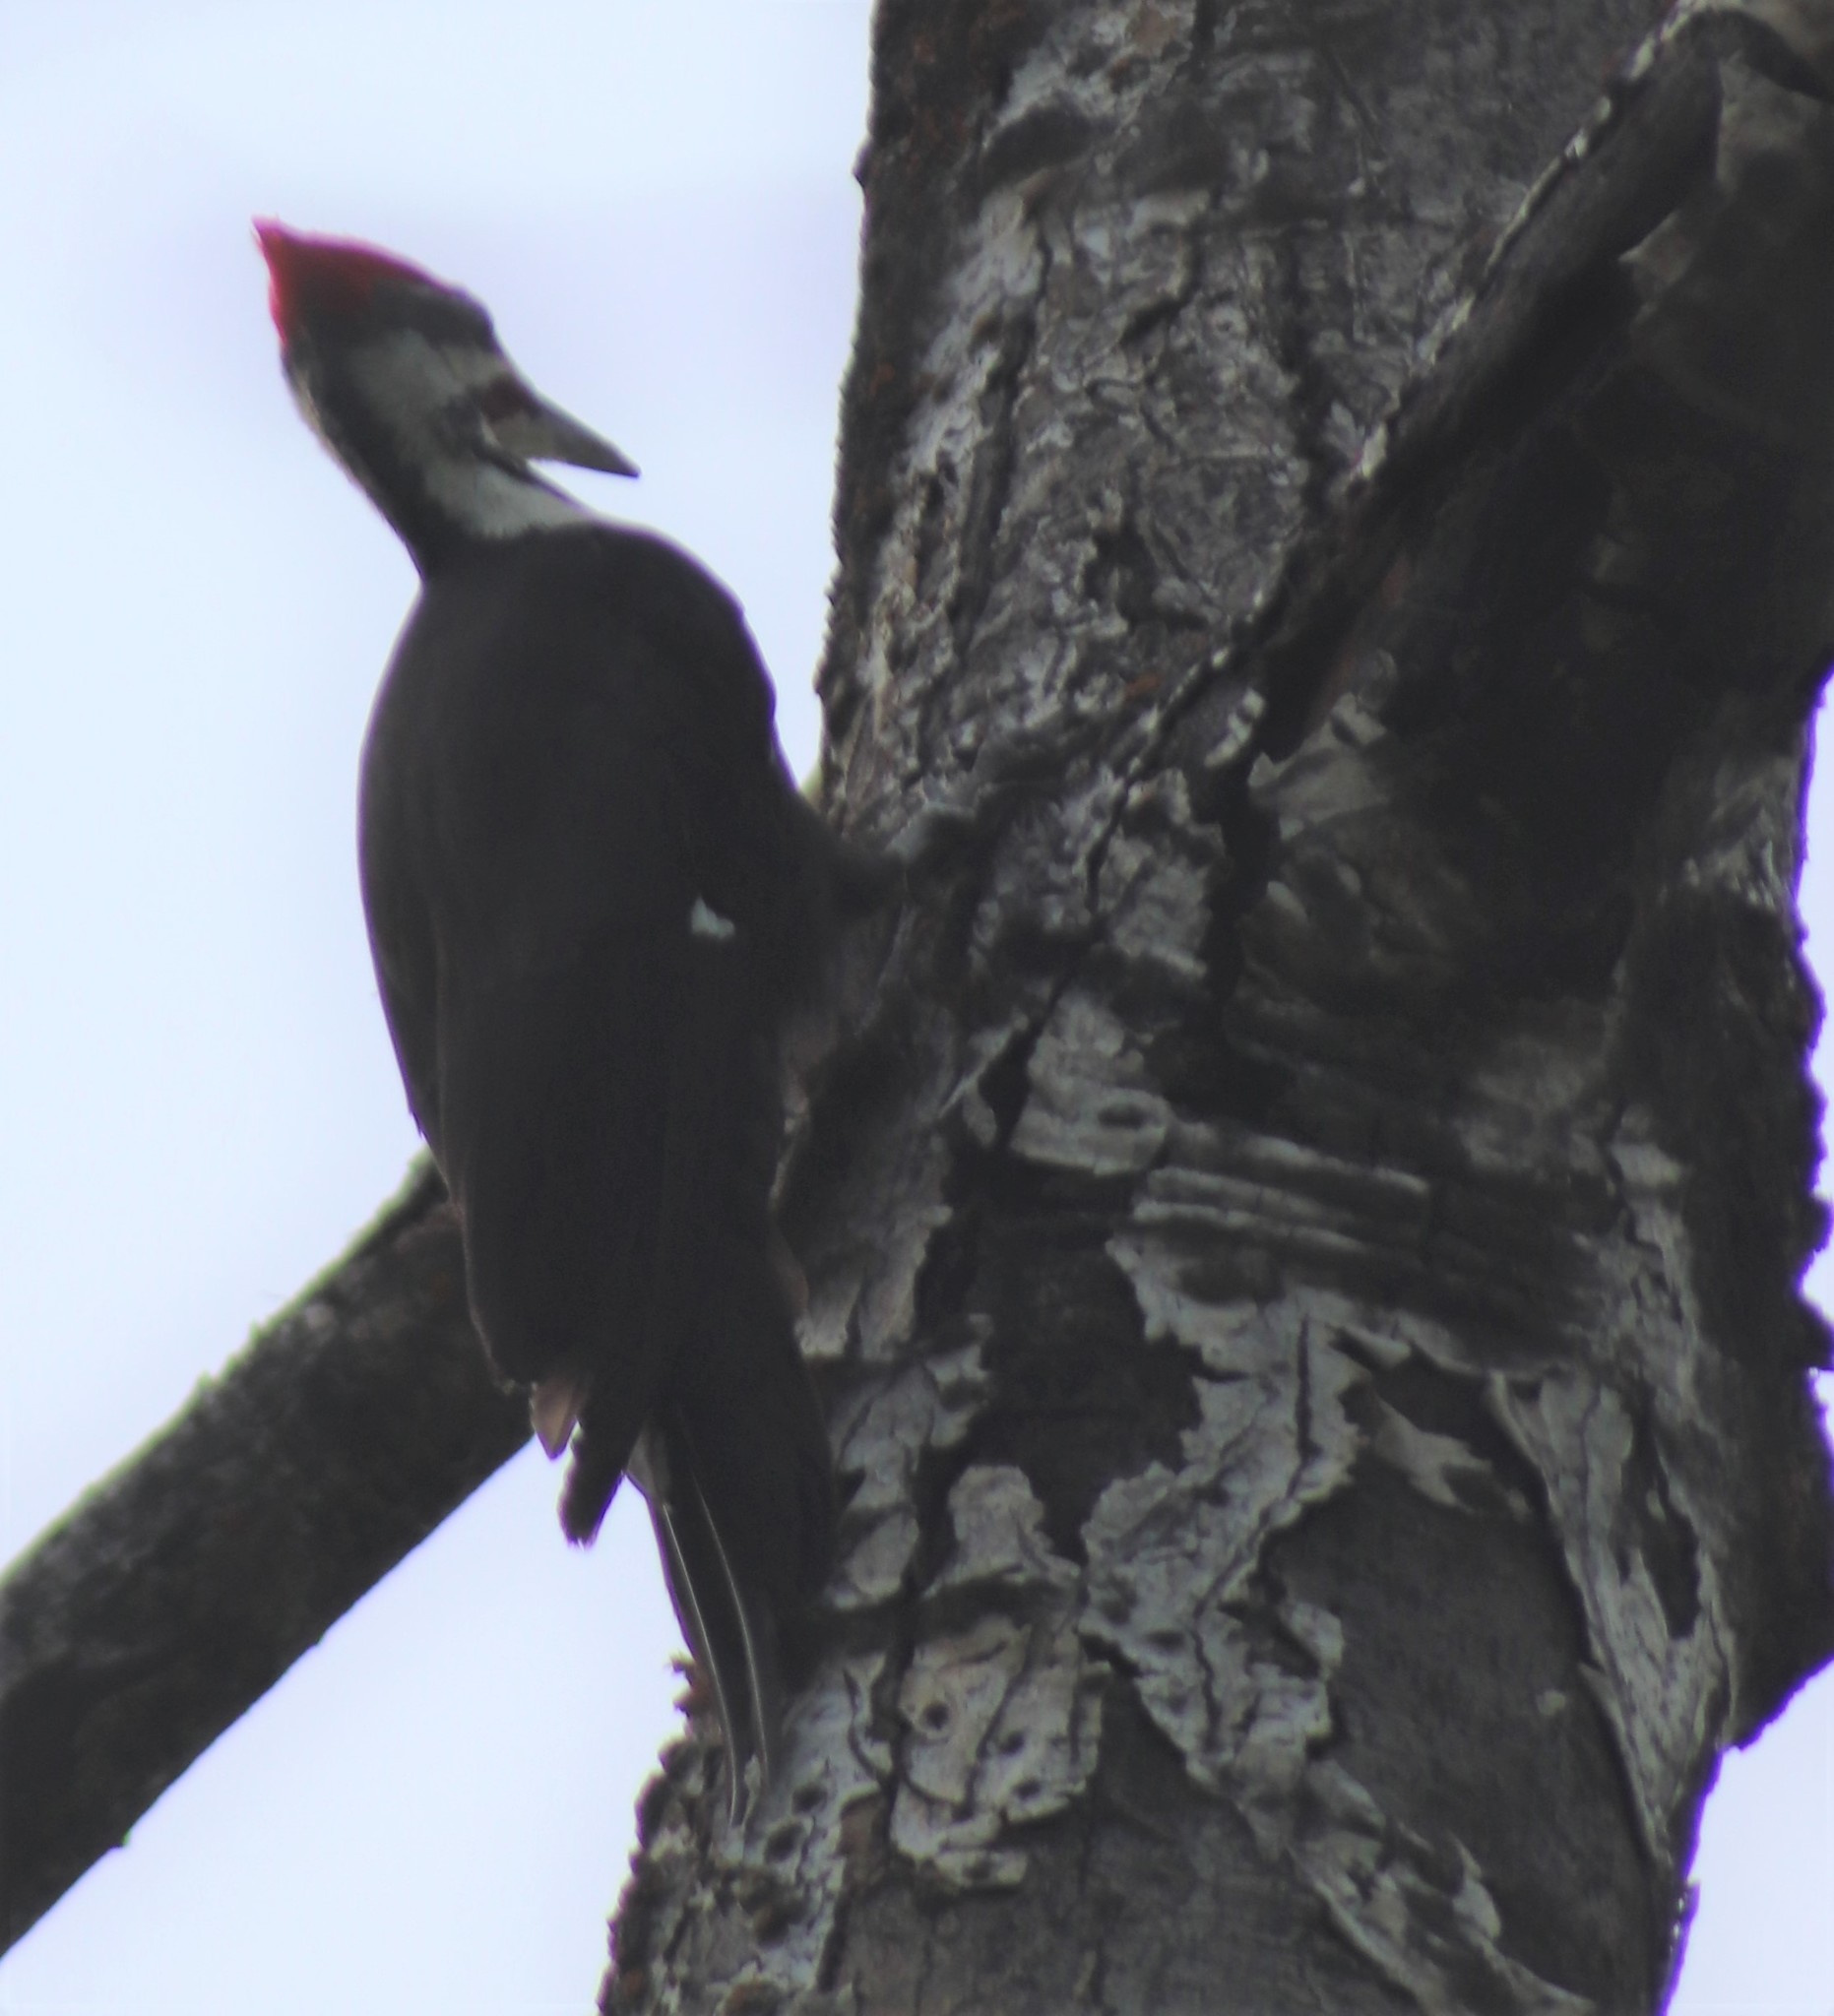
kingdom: Animalia
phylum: Chordata
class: Aves
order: Piciformes
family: Picidae
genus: Dryocopus
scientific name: Dryocopus pileatus
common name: Pileated woodpecker
